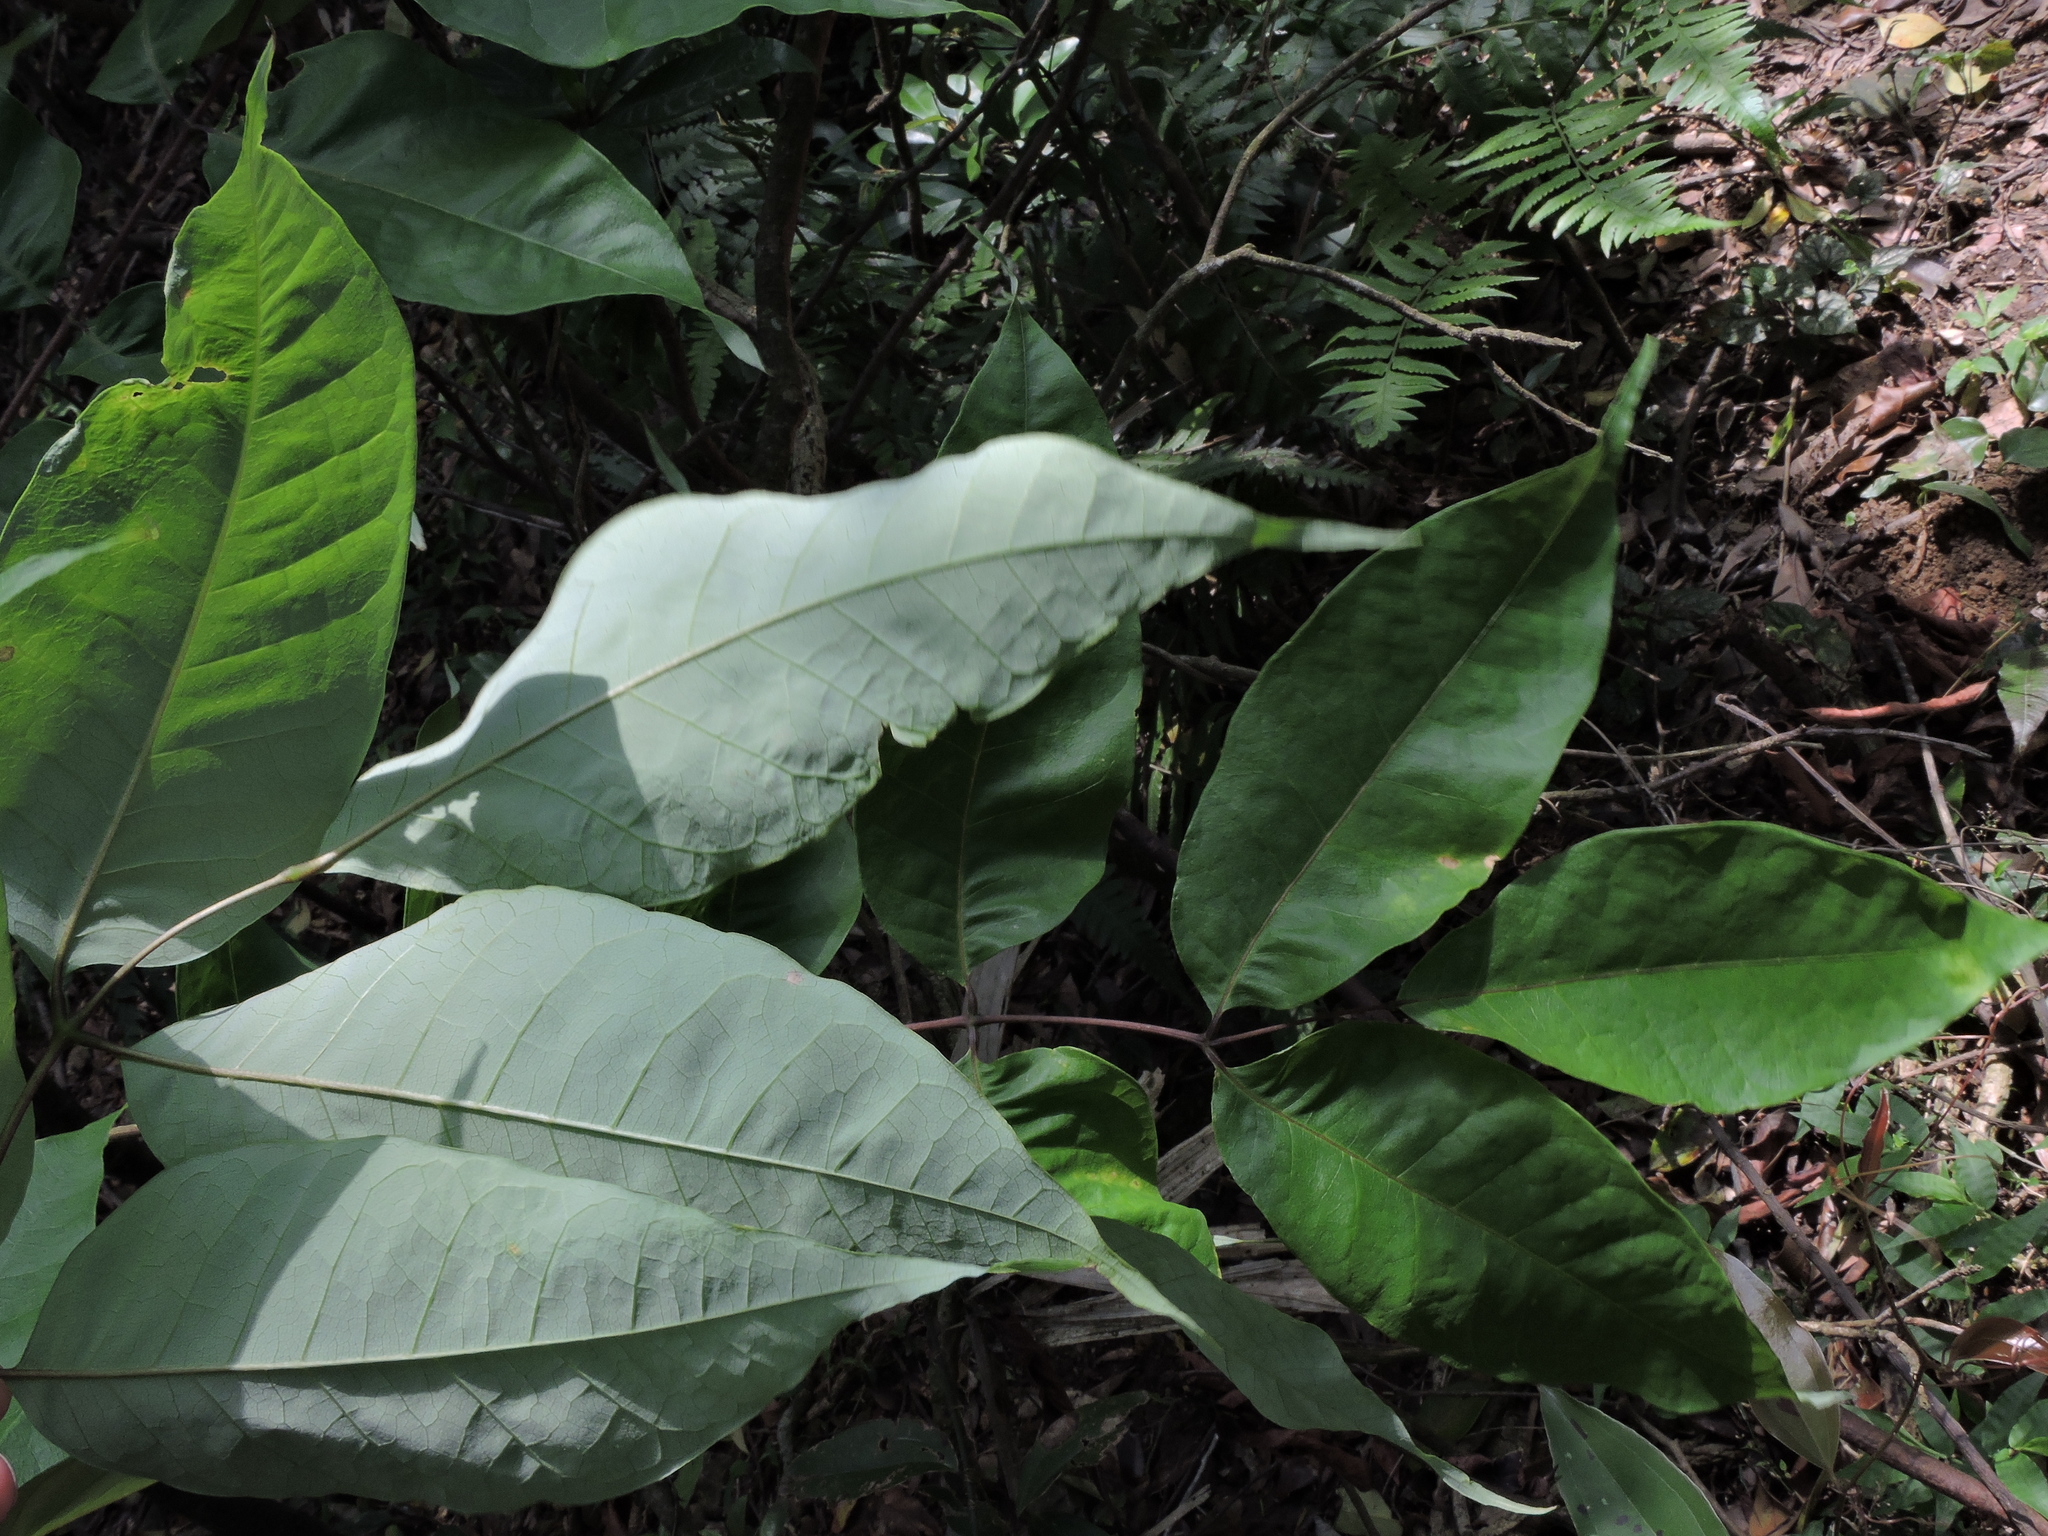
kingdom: Plantae
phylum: Tracheophyta
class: Magnoliopsida
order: Brassicales
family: Akaniaceae
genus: Bretschneidera
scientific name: Bretschneidera sinensis
